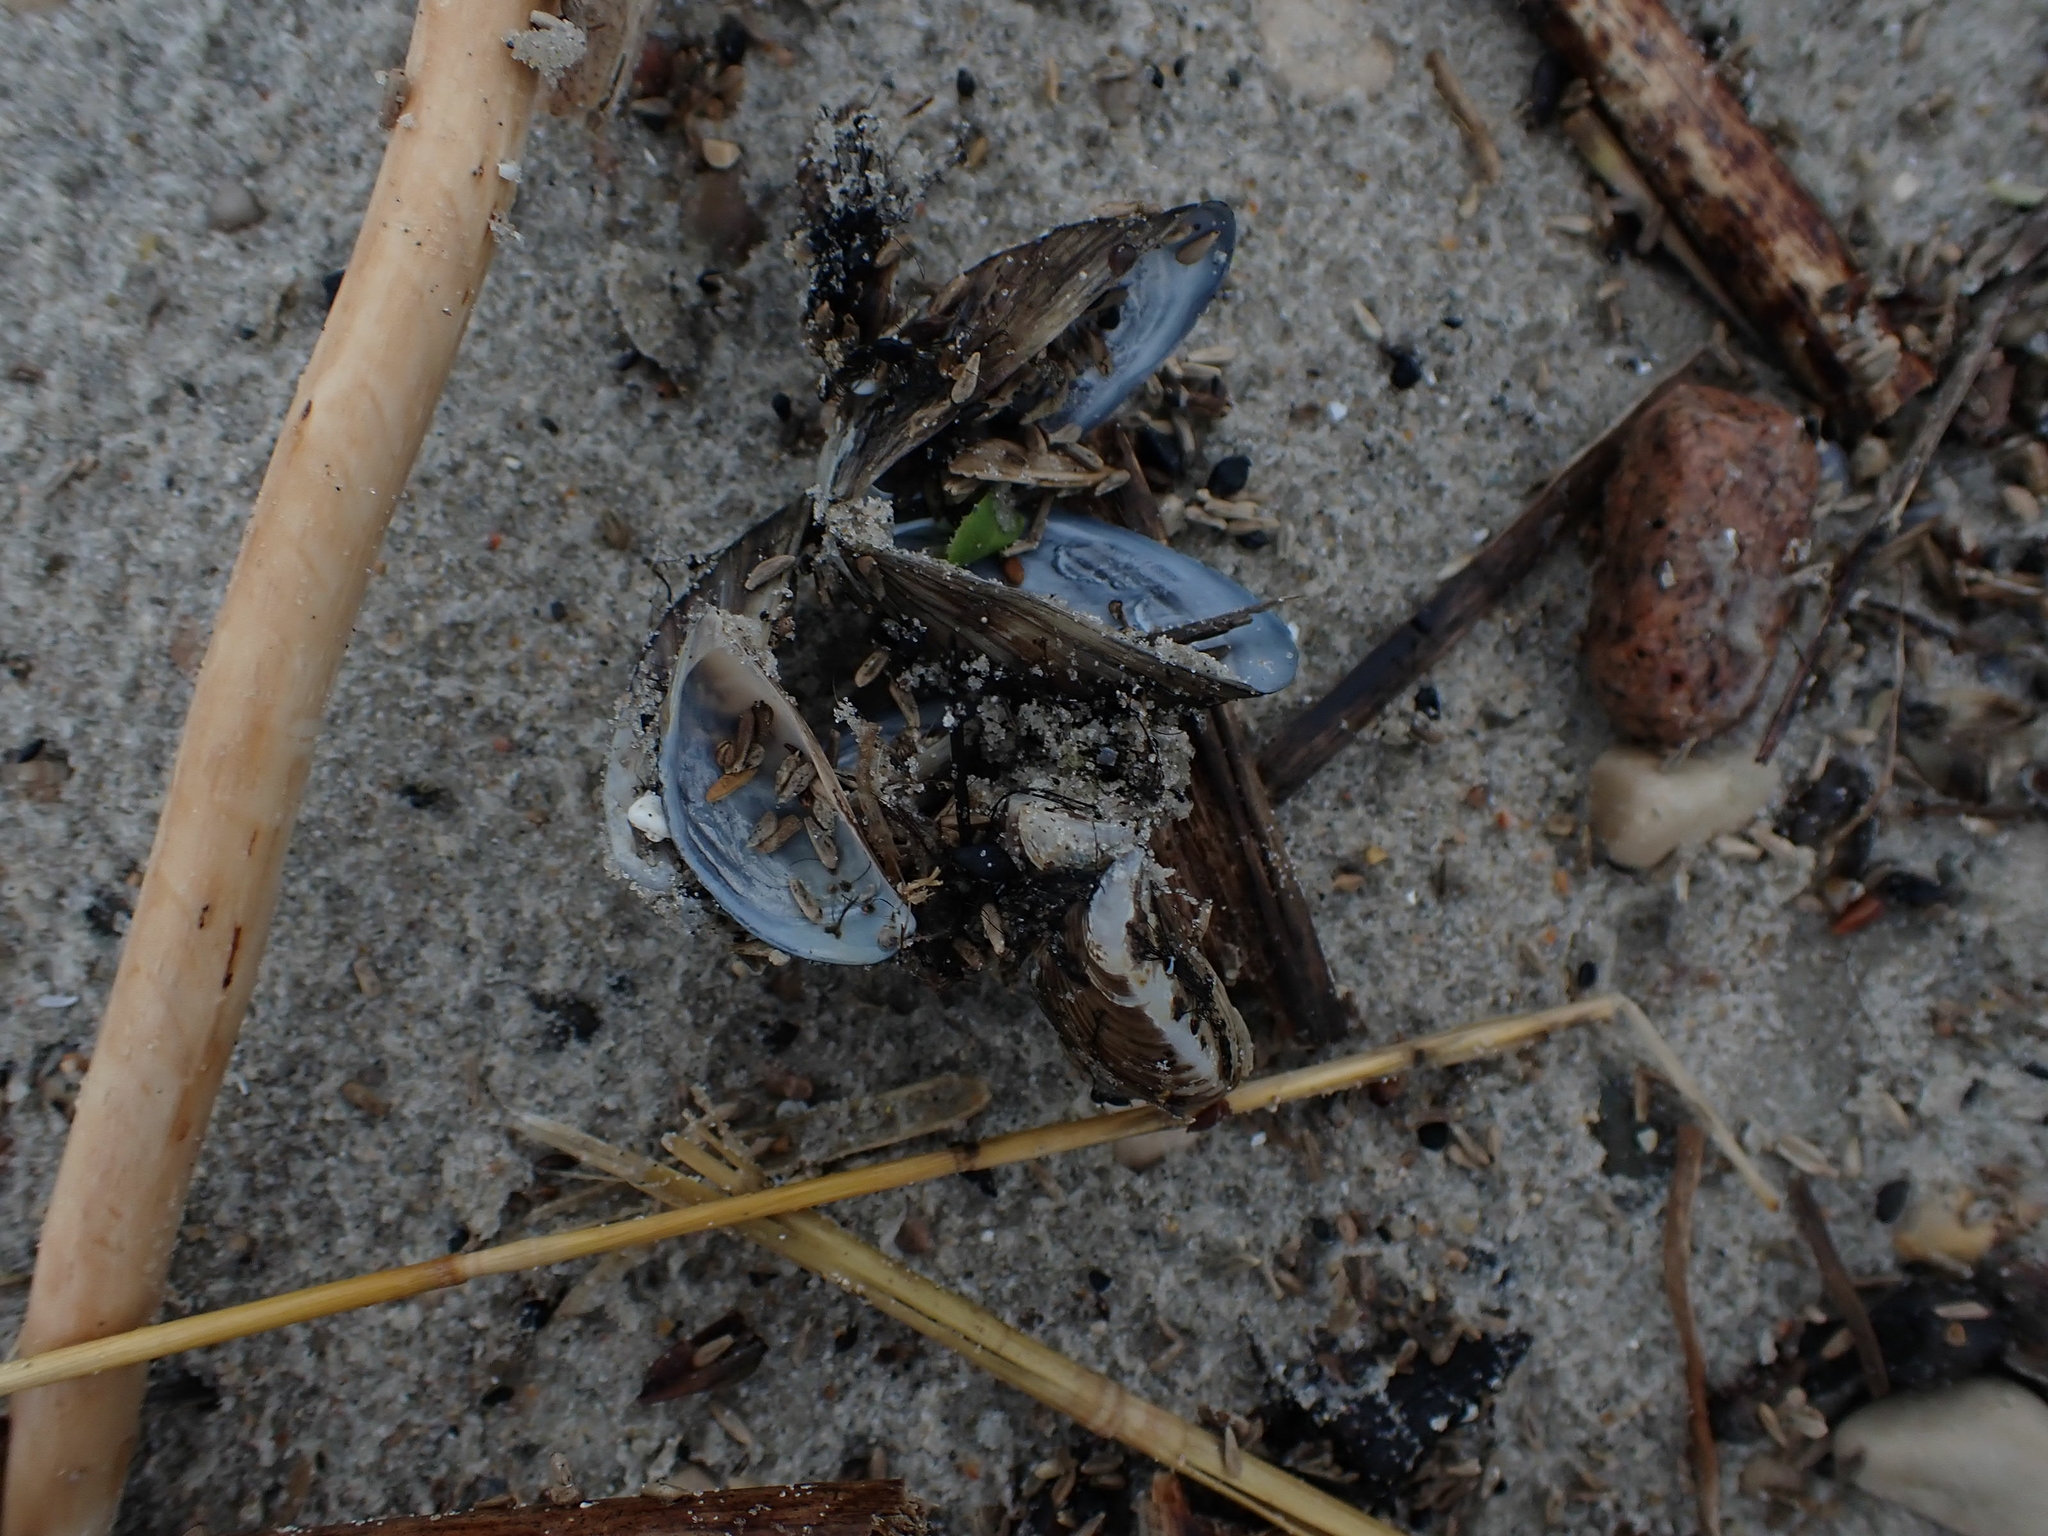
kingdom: Animalia
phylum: Mollusca
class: Bivalvia
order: Myida
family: Dreissenidae
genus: Dreissena
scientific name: Dreissena polymorpha
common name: Zebra mussel
